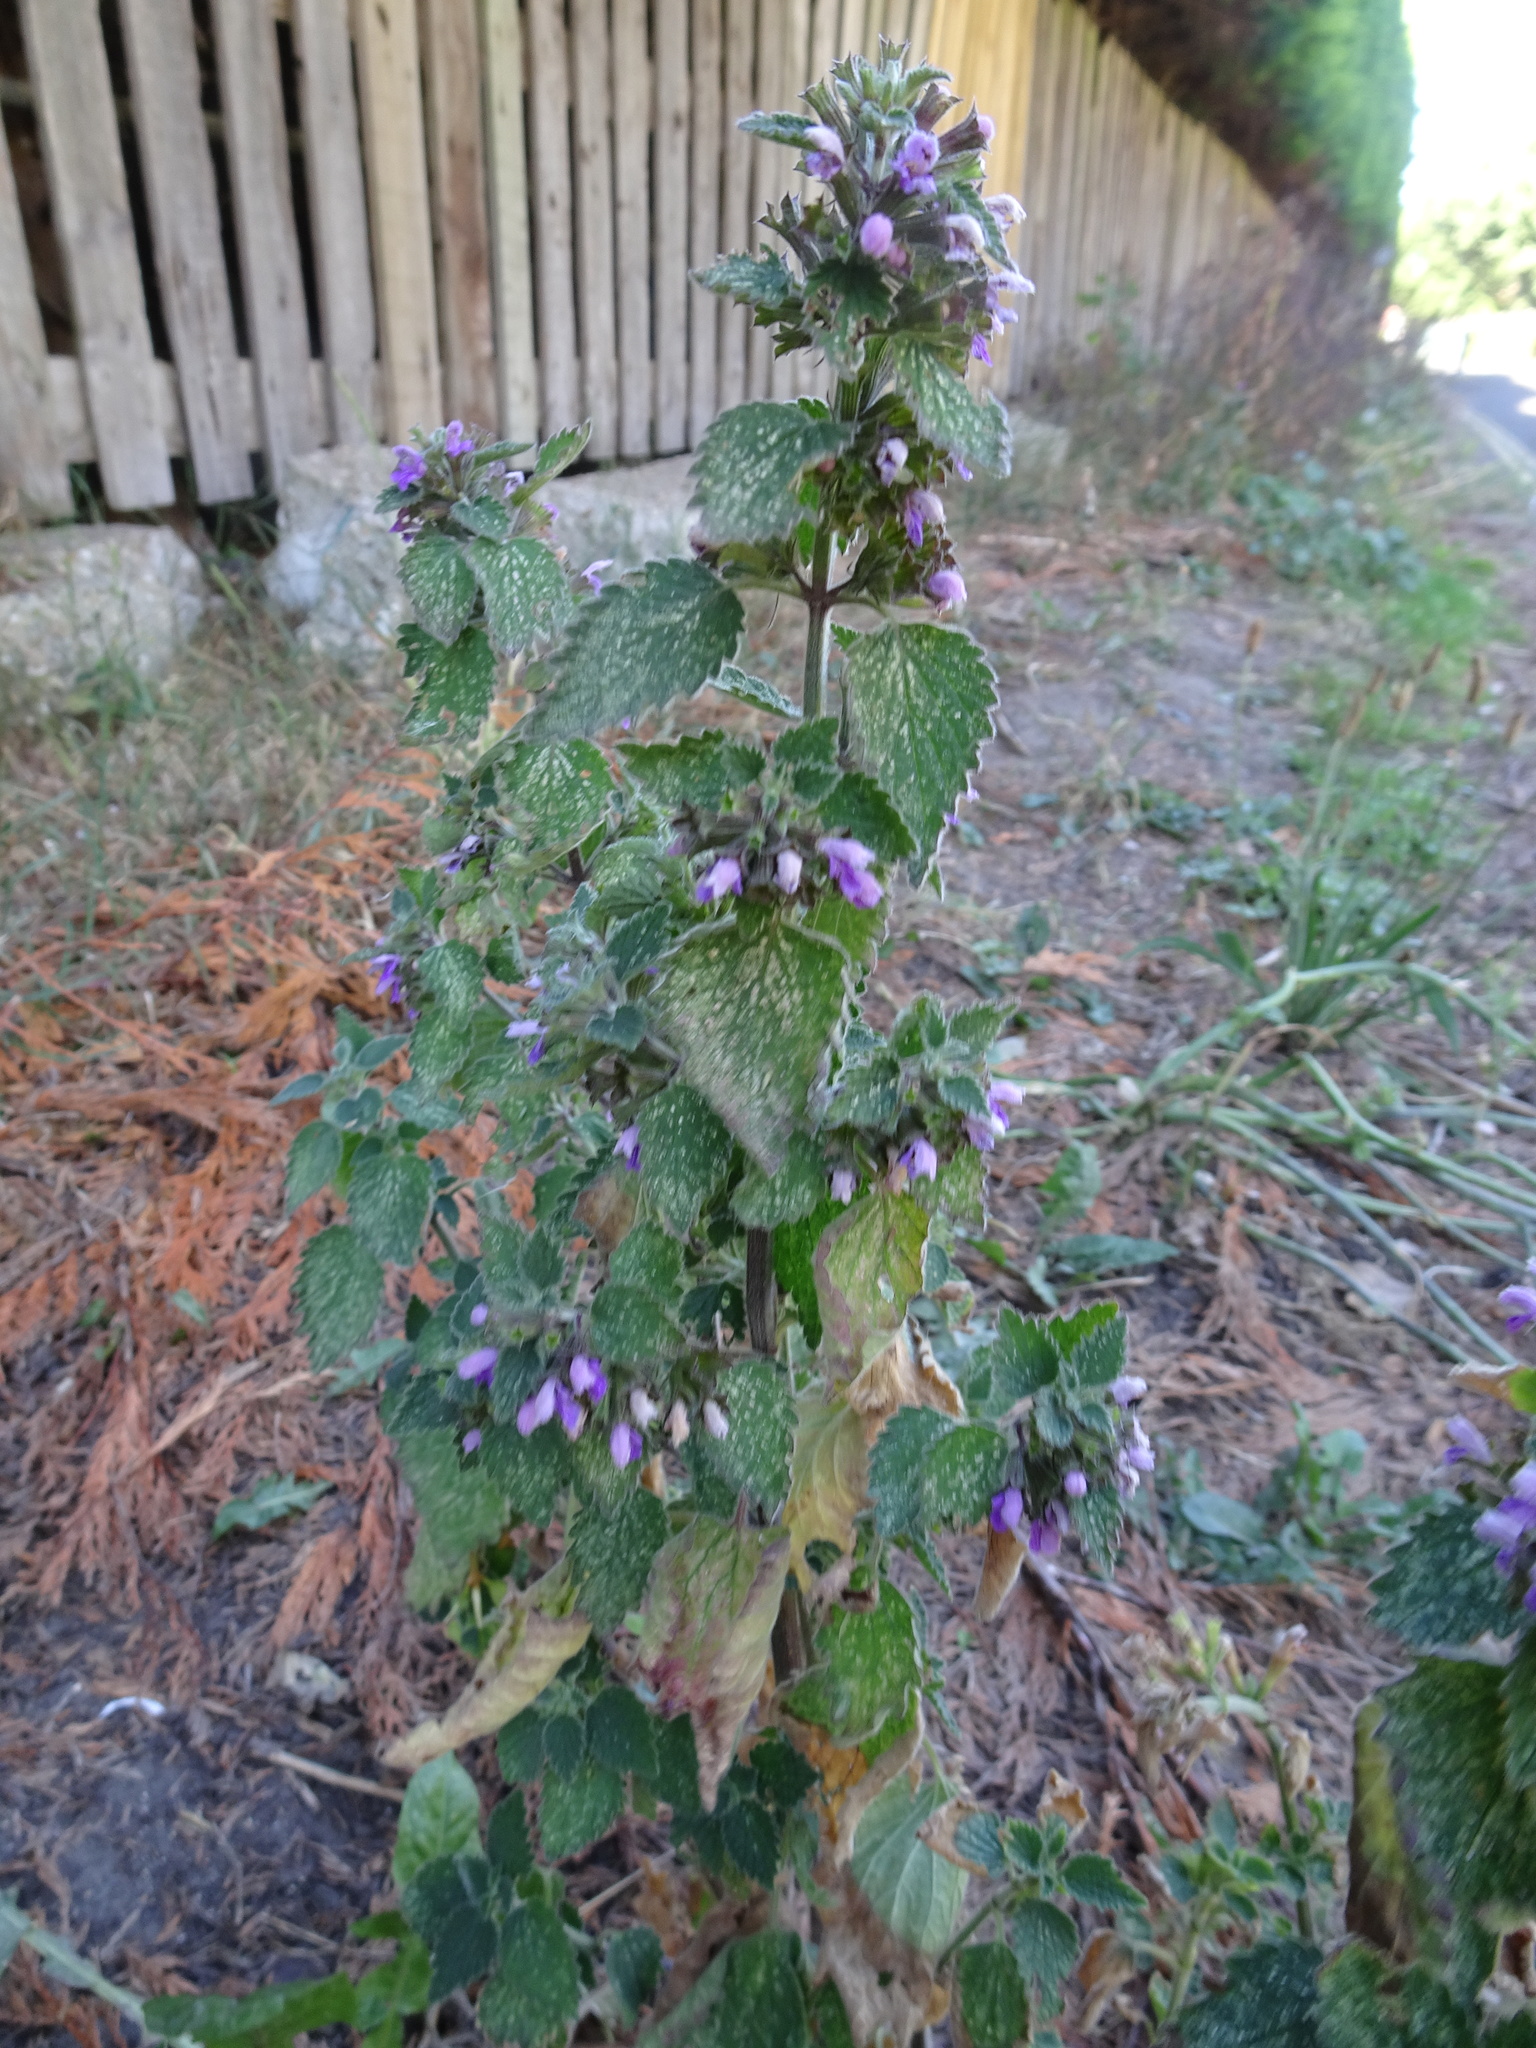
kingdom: Plantae
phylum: Tracheophyta
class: Magnoliopsida
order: Lamiales
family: Lamiaceae
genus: Ballota
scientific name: Ballota nigra
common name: Black horehound
